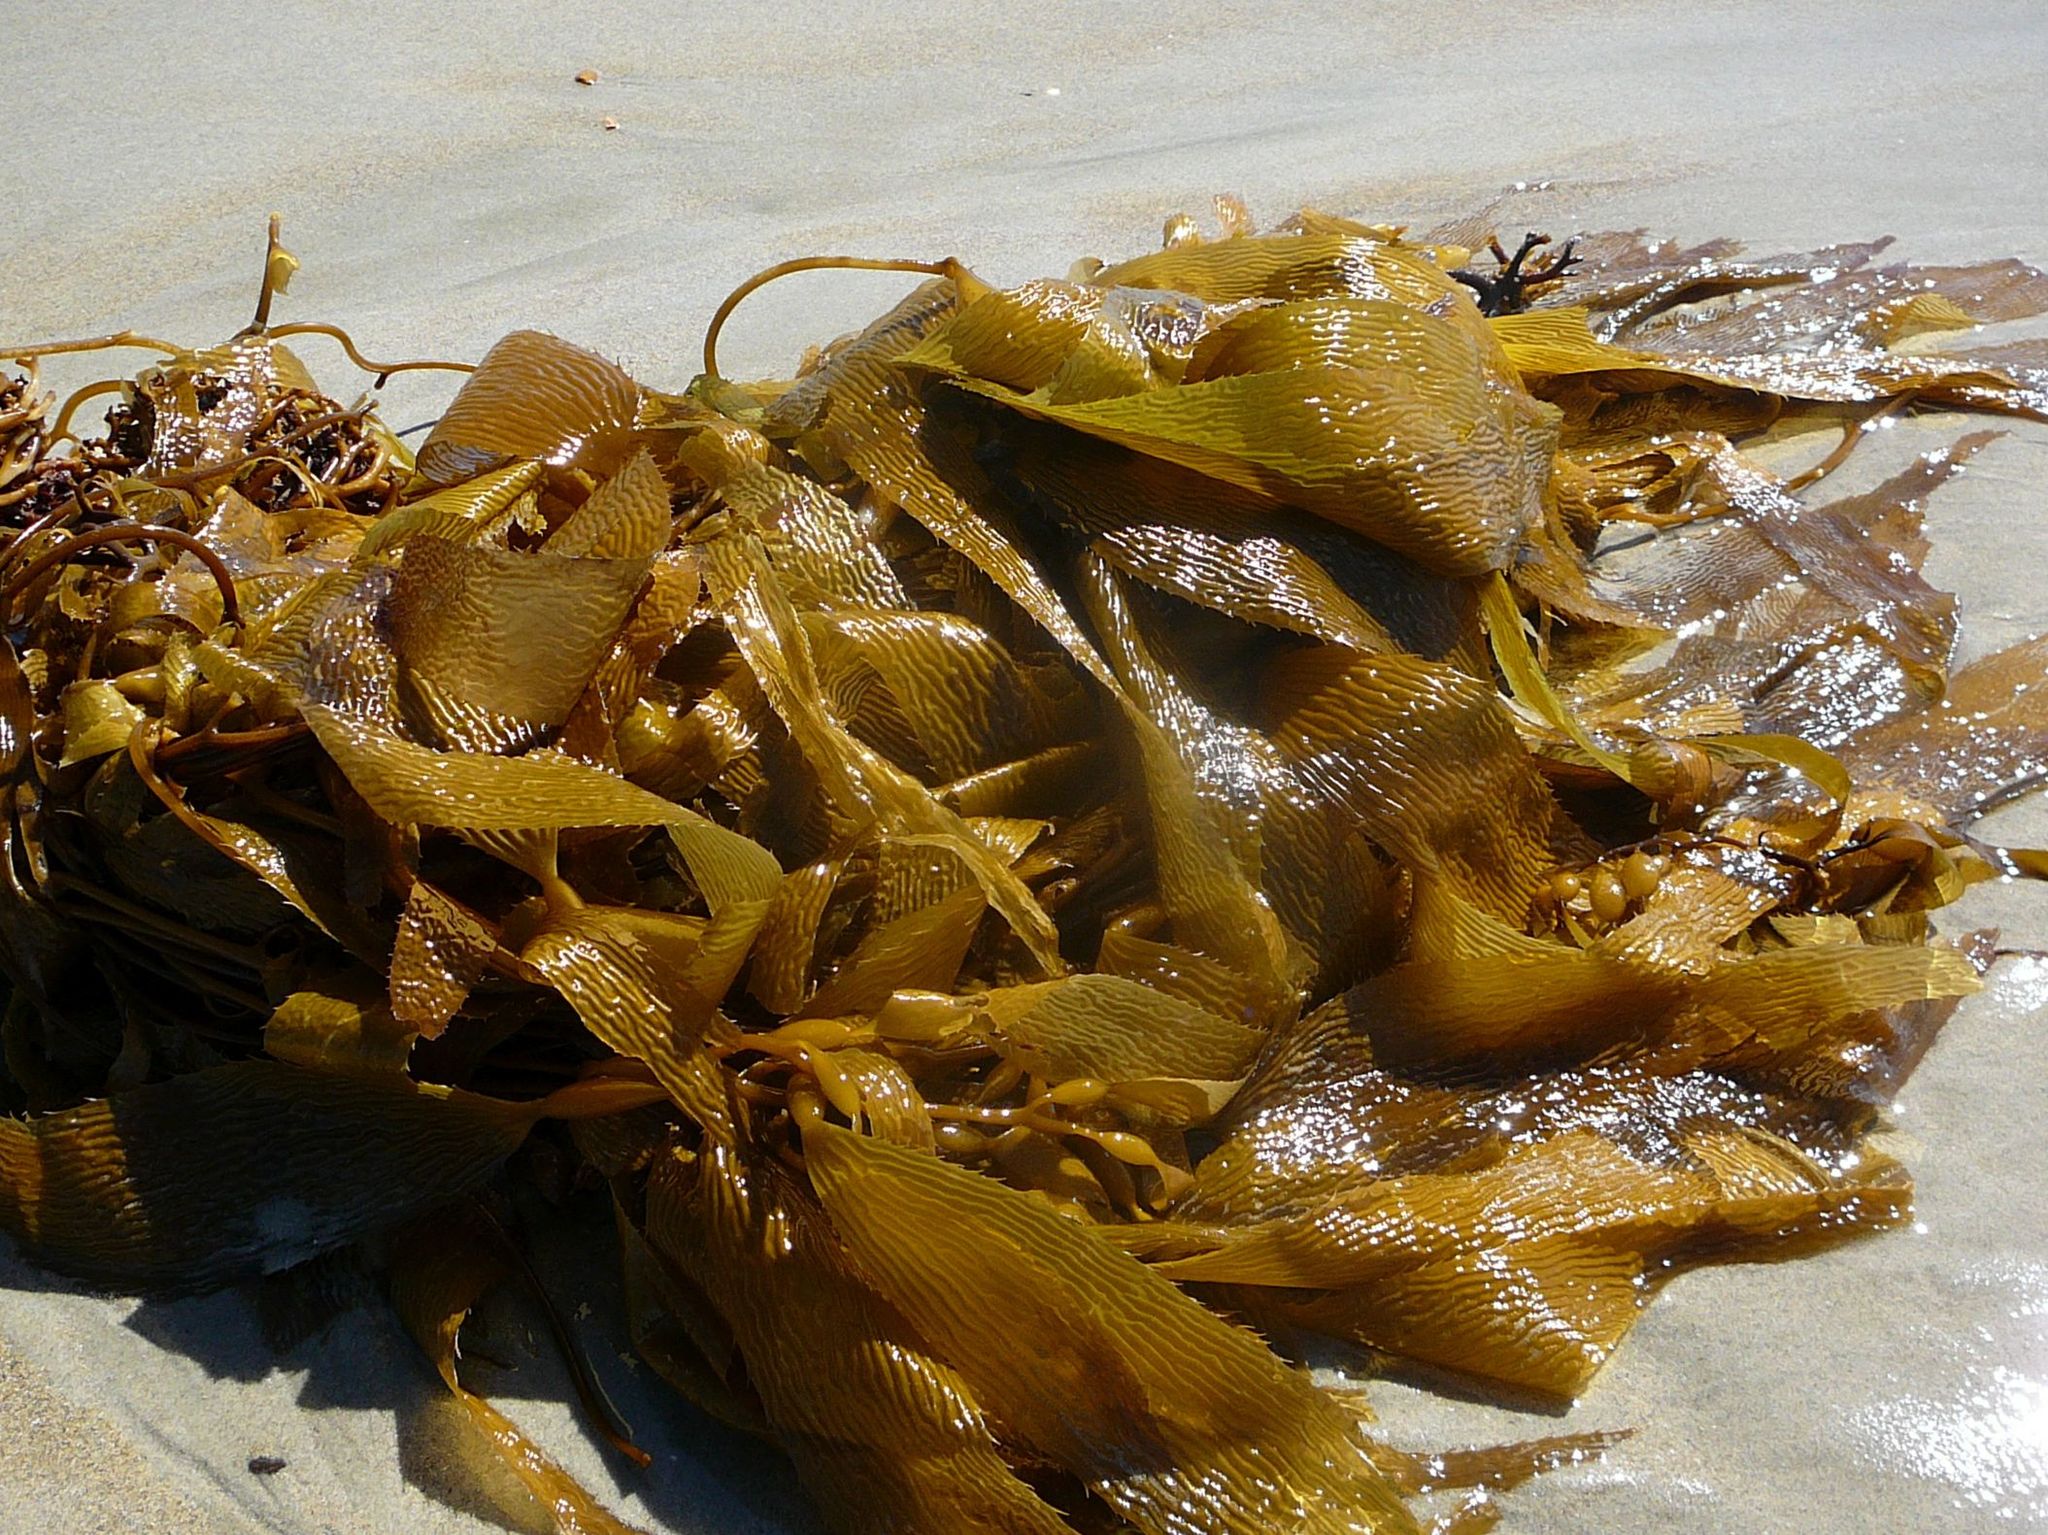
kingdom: Chromista
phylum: Ochrophyta
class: Phaeophyceae
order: Laminariales
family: Laminariaceae
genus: Macrocystis
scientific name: Macrocystis pyrifera
